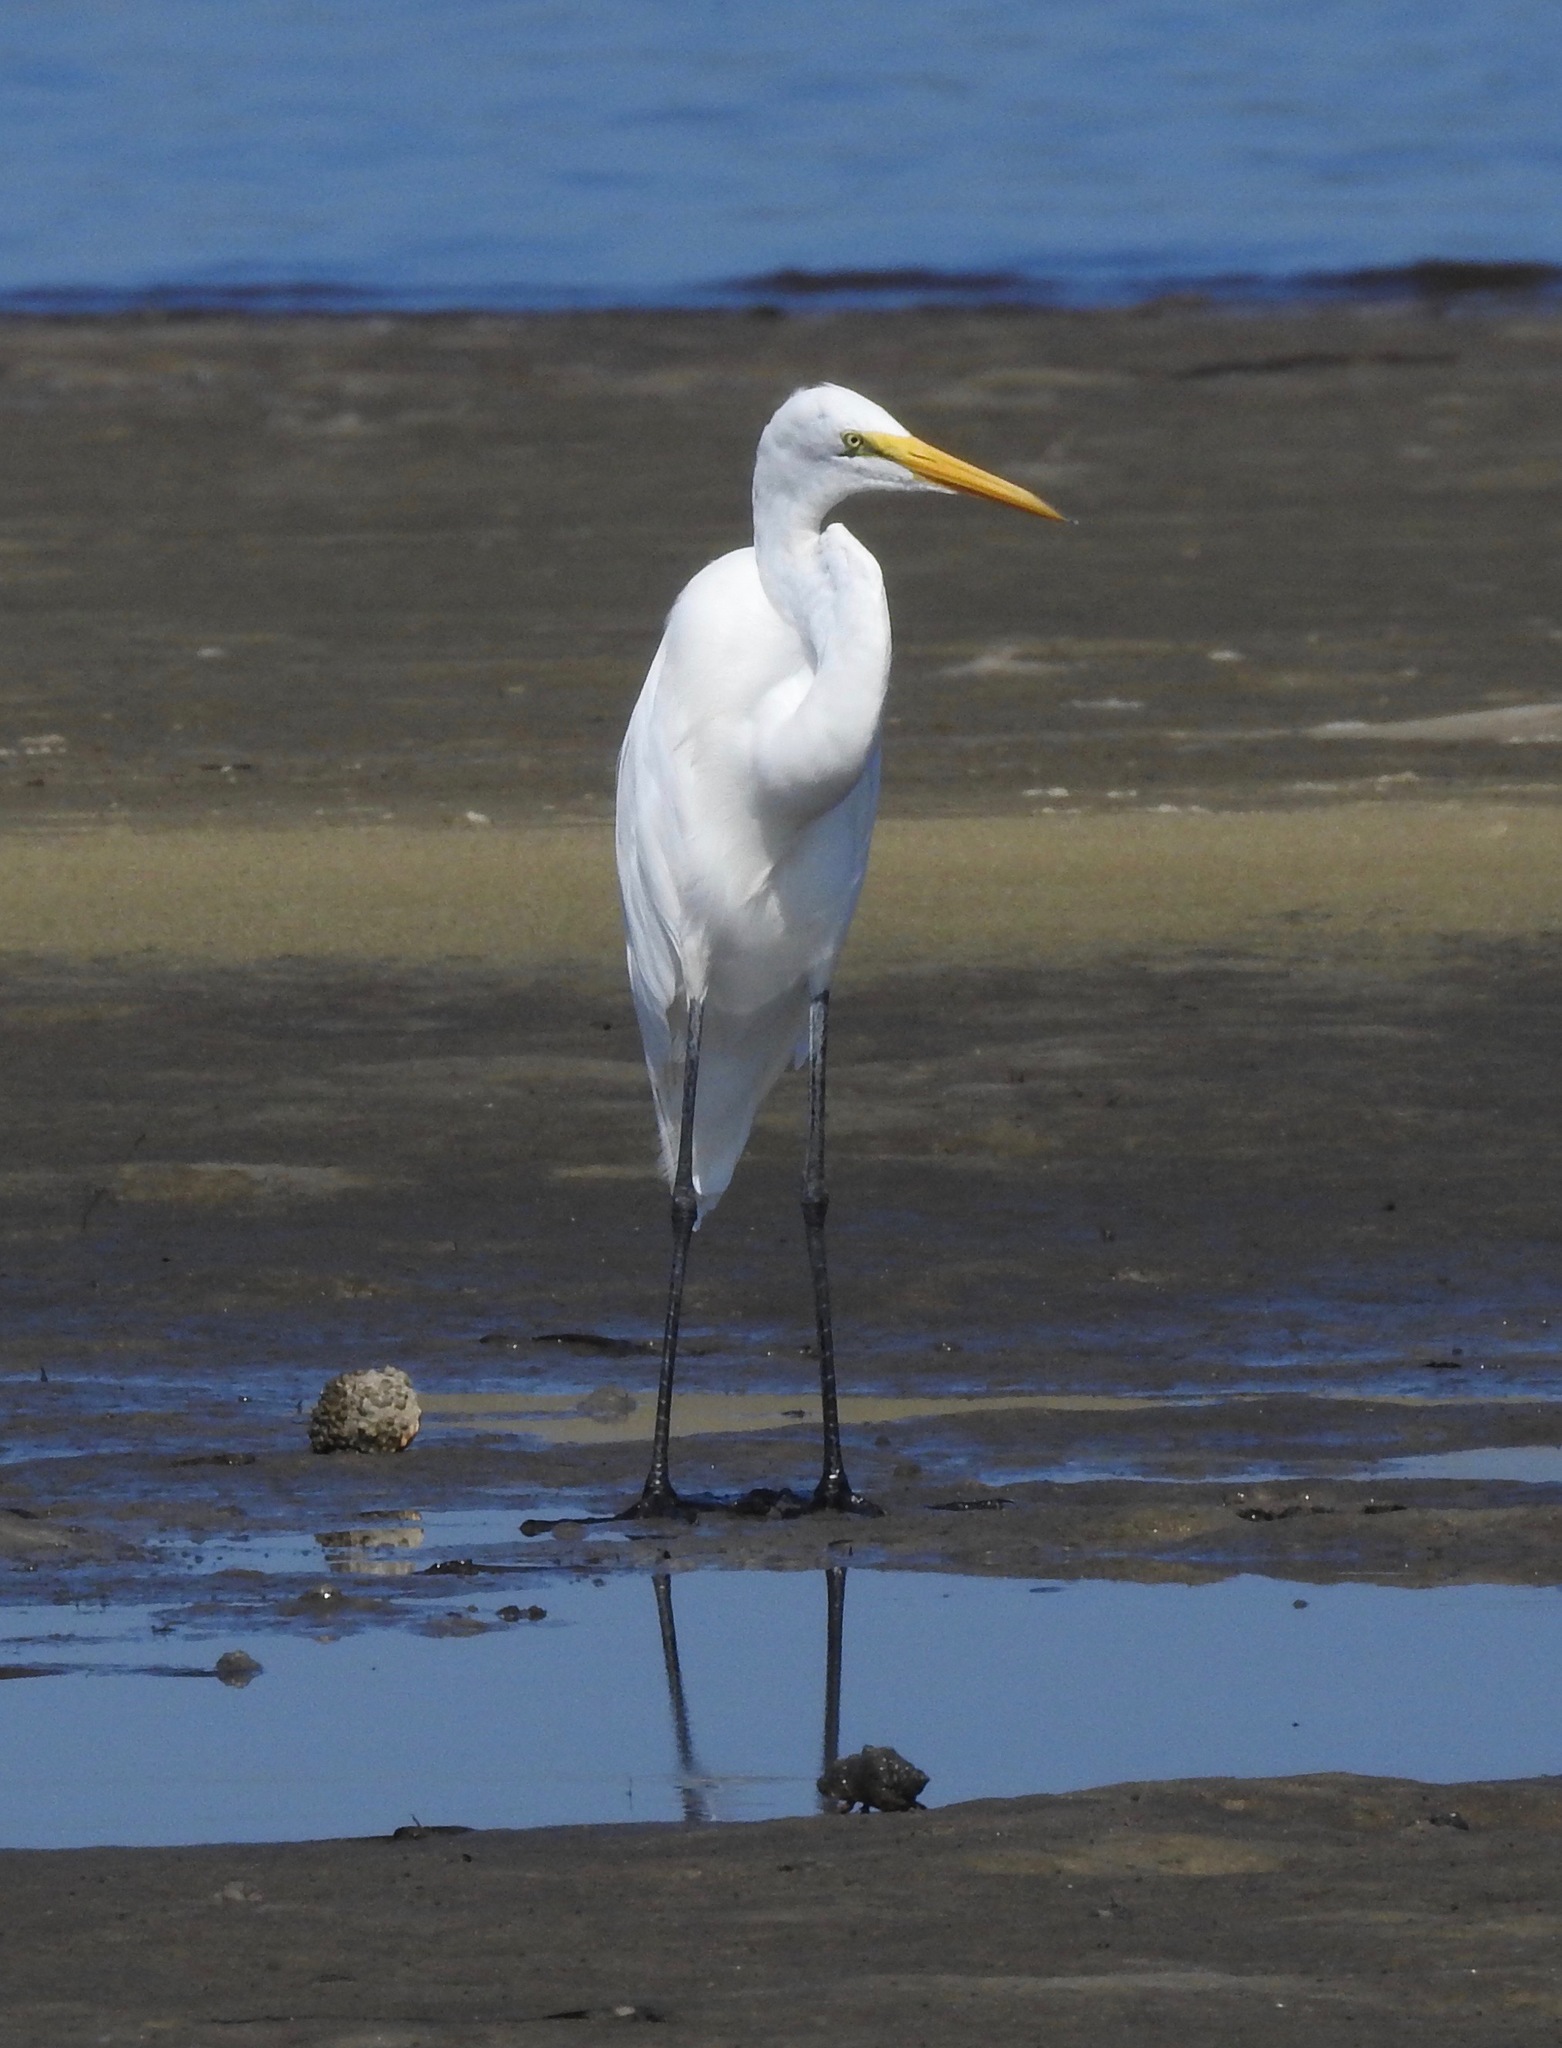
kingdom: Animalia
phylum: Chordata
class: Aves
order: Pelecaniformes
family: Ardeidae
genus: Ardea
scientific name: Ardea alba
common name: Great egret
